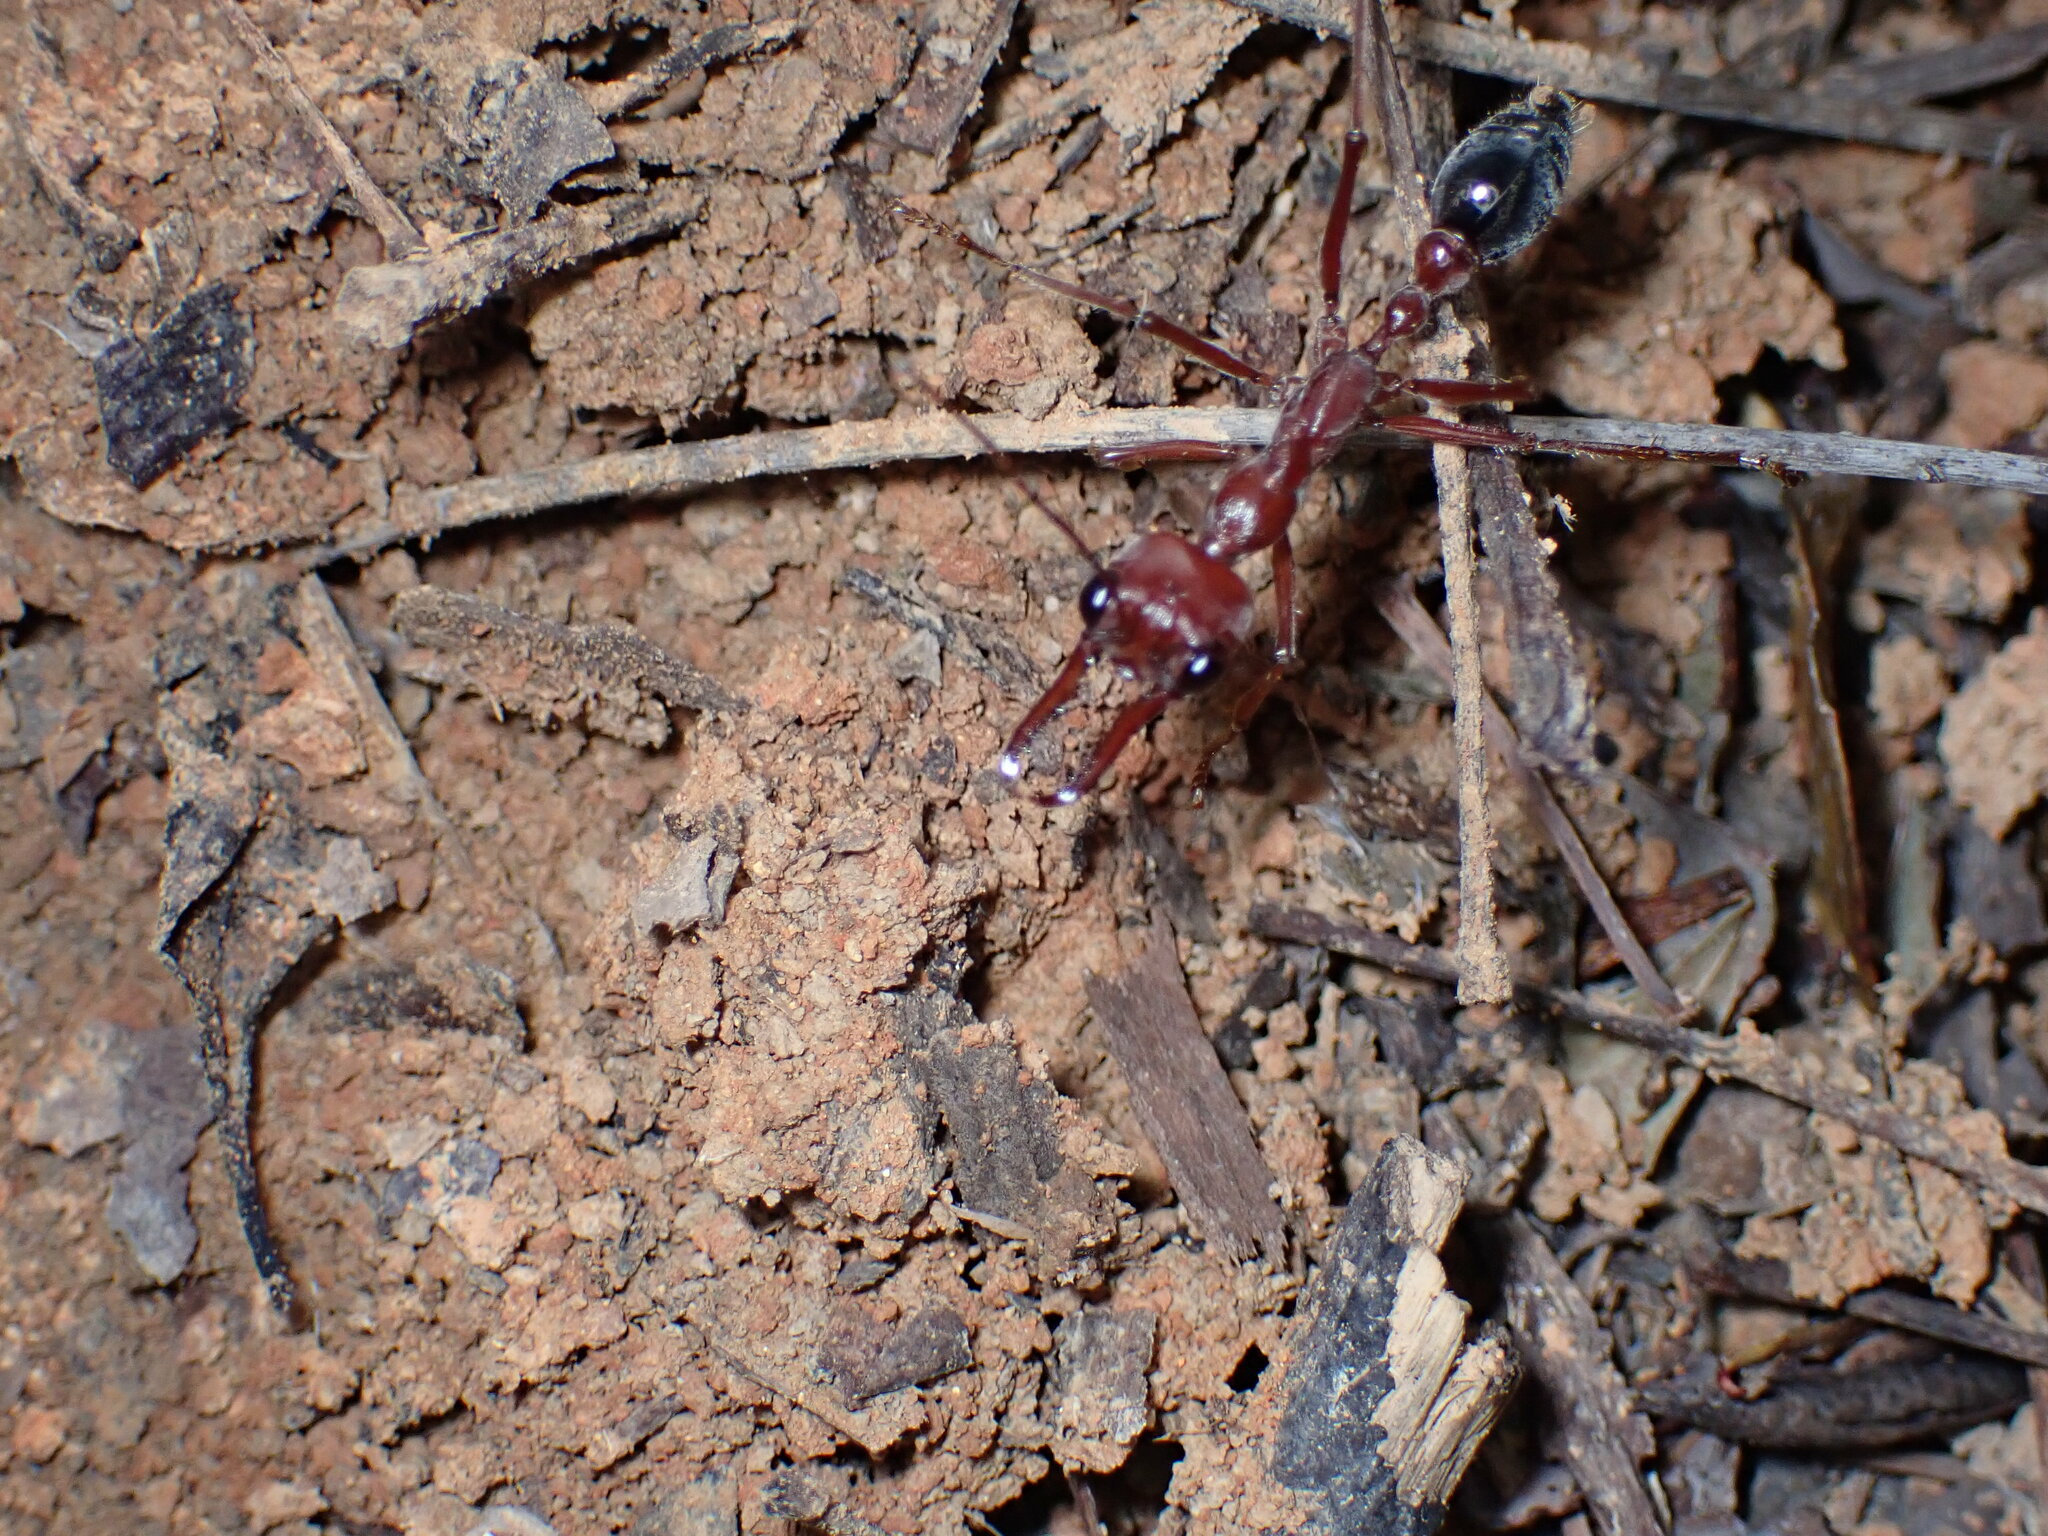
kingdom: Animalia
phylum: Arthropoda
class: Insecta
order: Hymenoptera
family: Formicidae
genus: Myrmecia
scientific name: Myrmecia brevinoda
